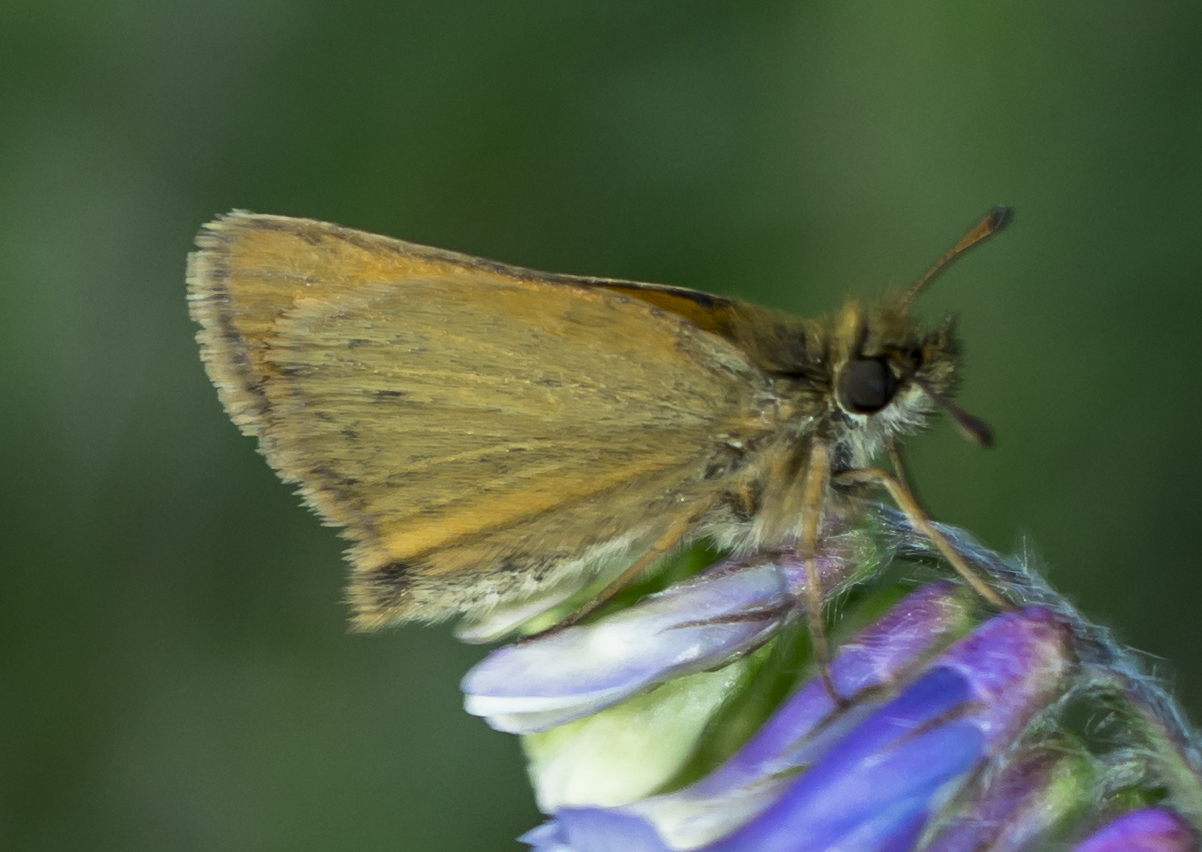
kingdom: Animalia
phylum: Arthropoda
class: Insecta
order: Lepidoptera
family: Hesperiidae
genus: Thymelicus
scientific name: Thymelicus lineola
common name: Essex skipper
